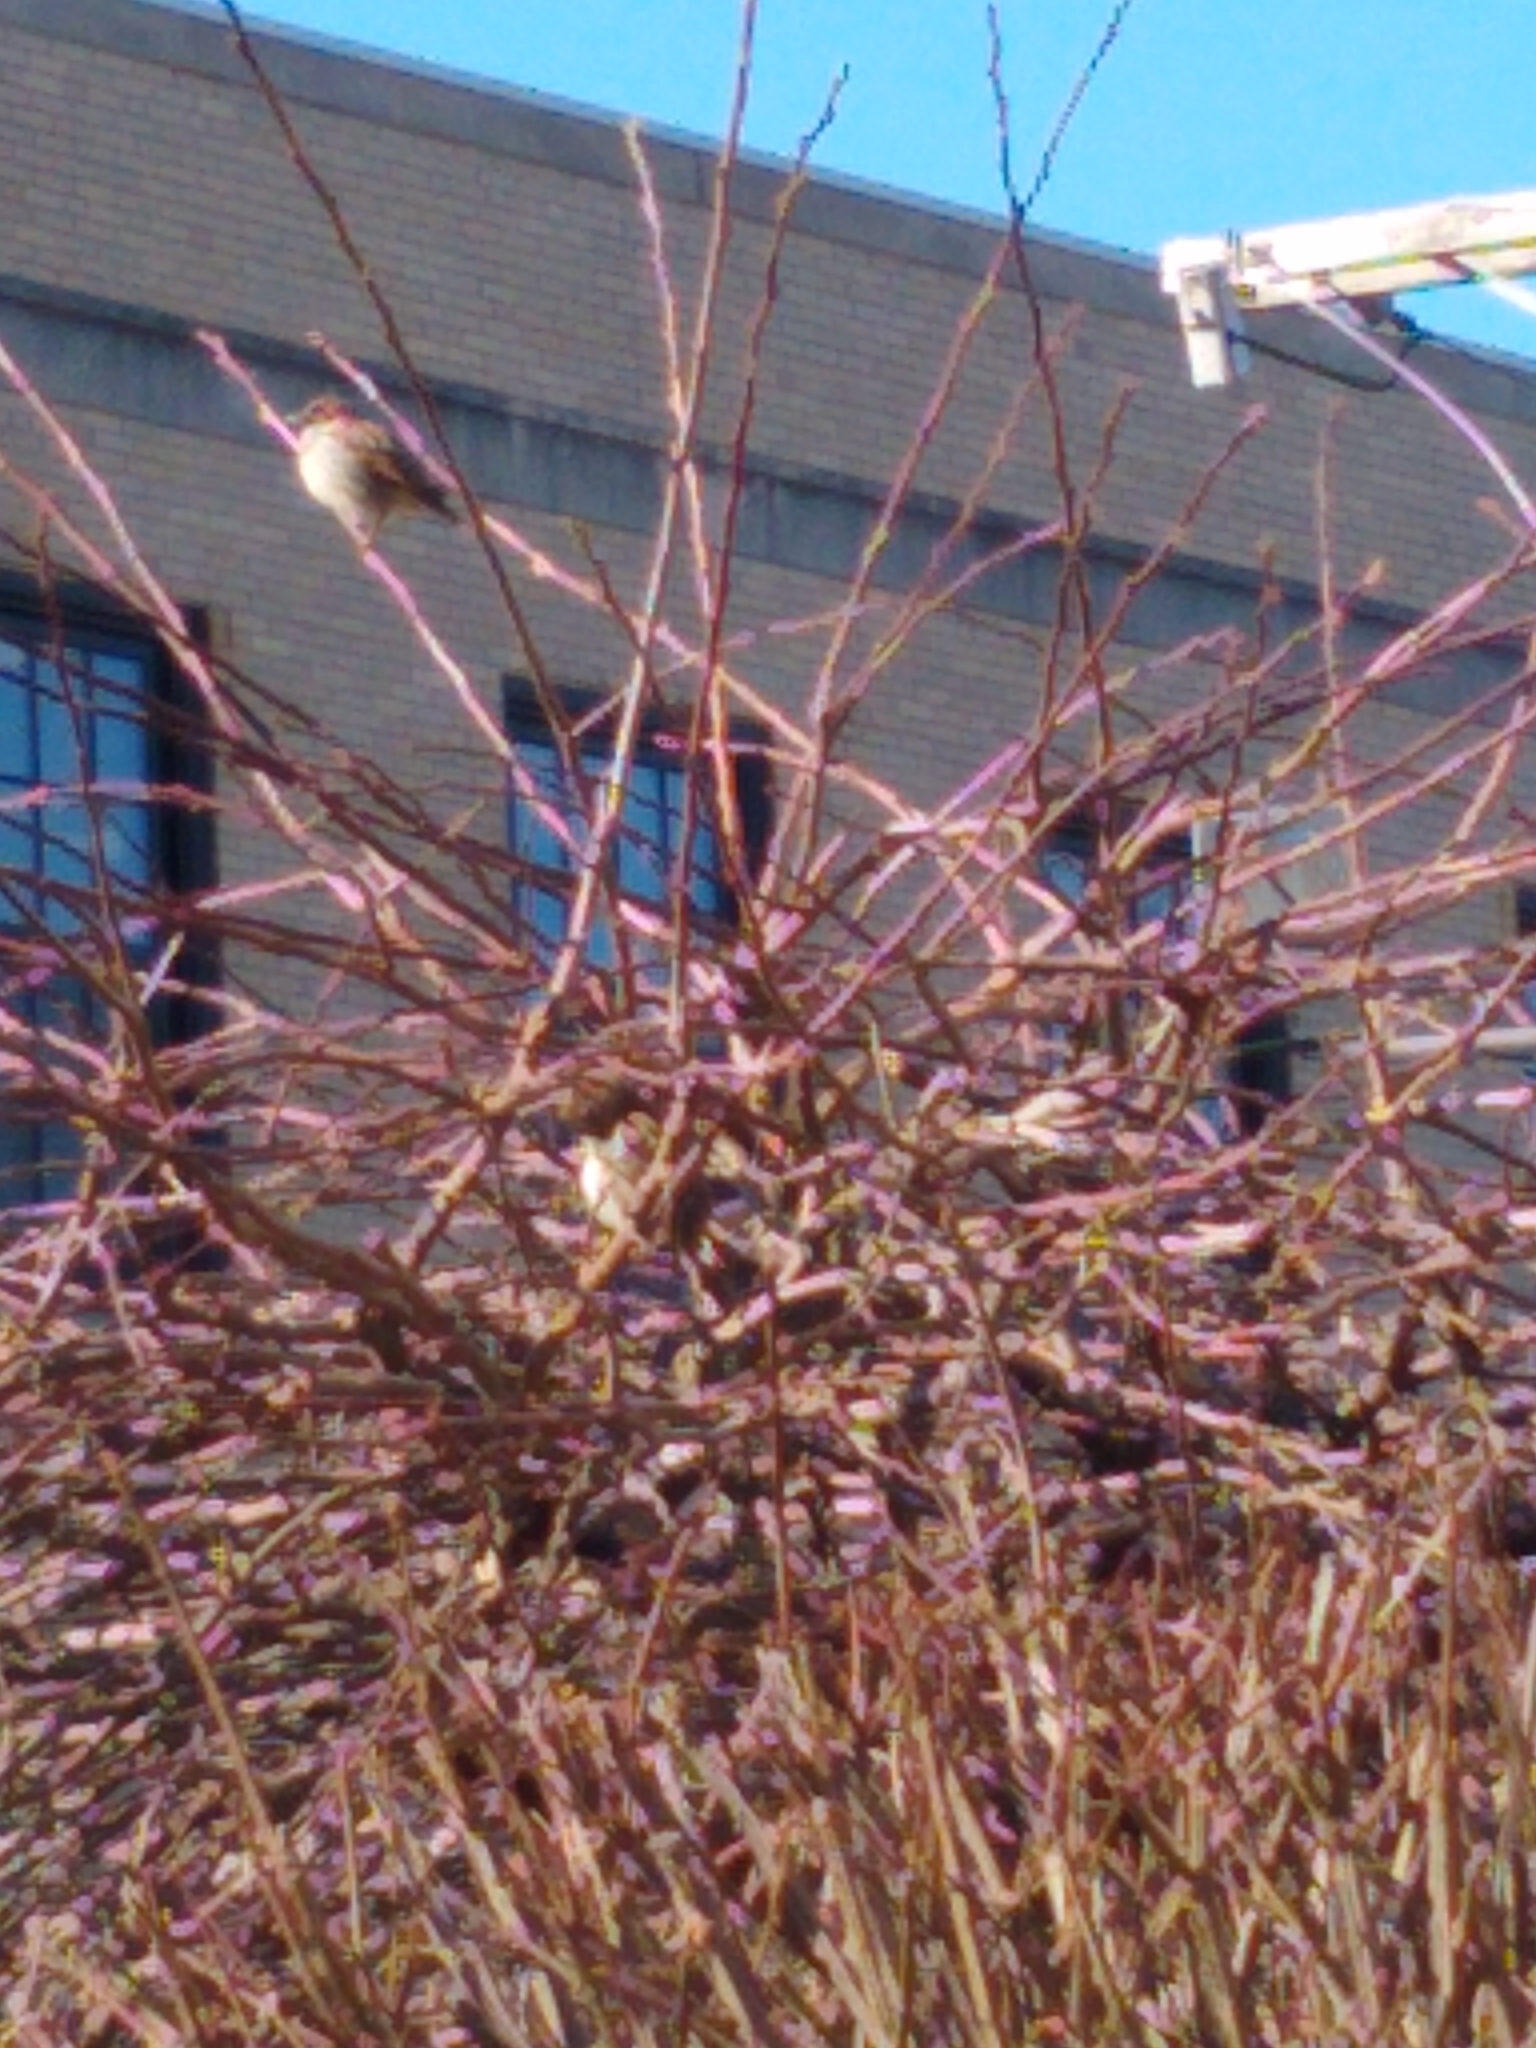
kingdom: Animalia
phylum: Chordata
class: Aves
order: Passeriformes
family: Passeridae
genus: Passer
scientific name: Passer domesticus
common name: House sparrow
